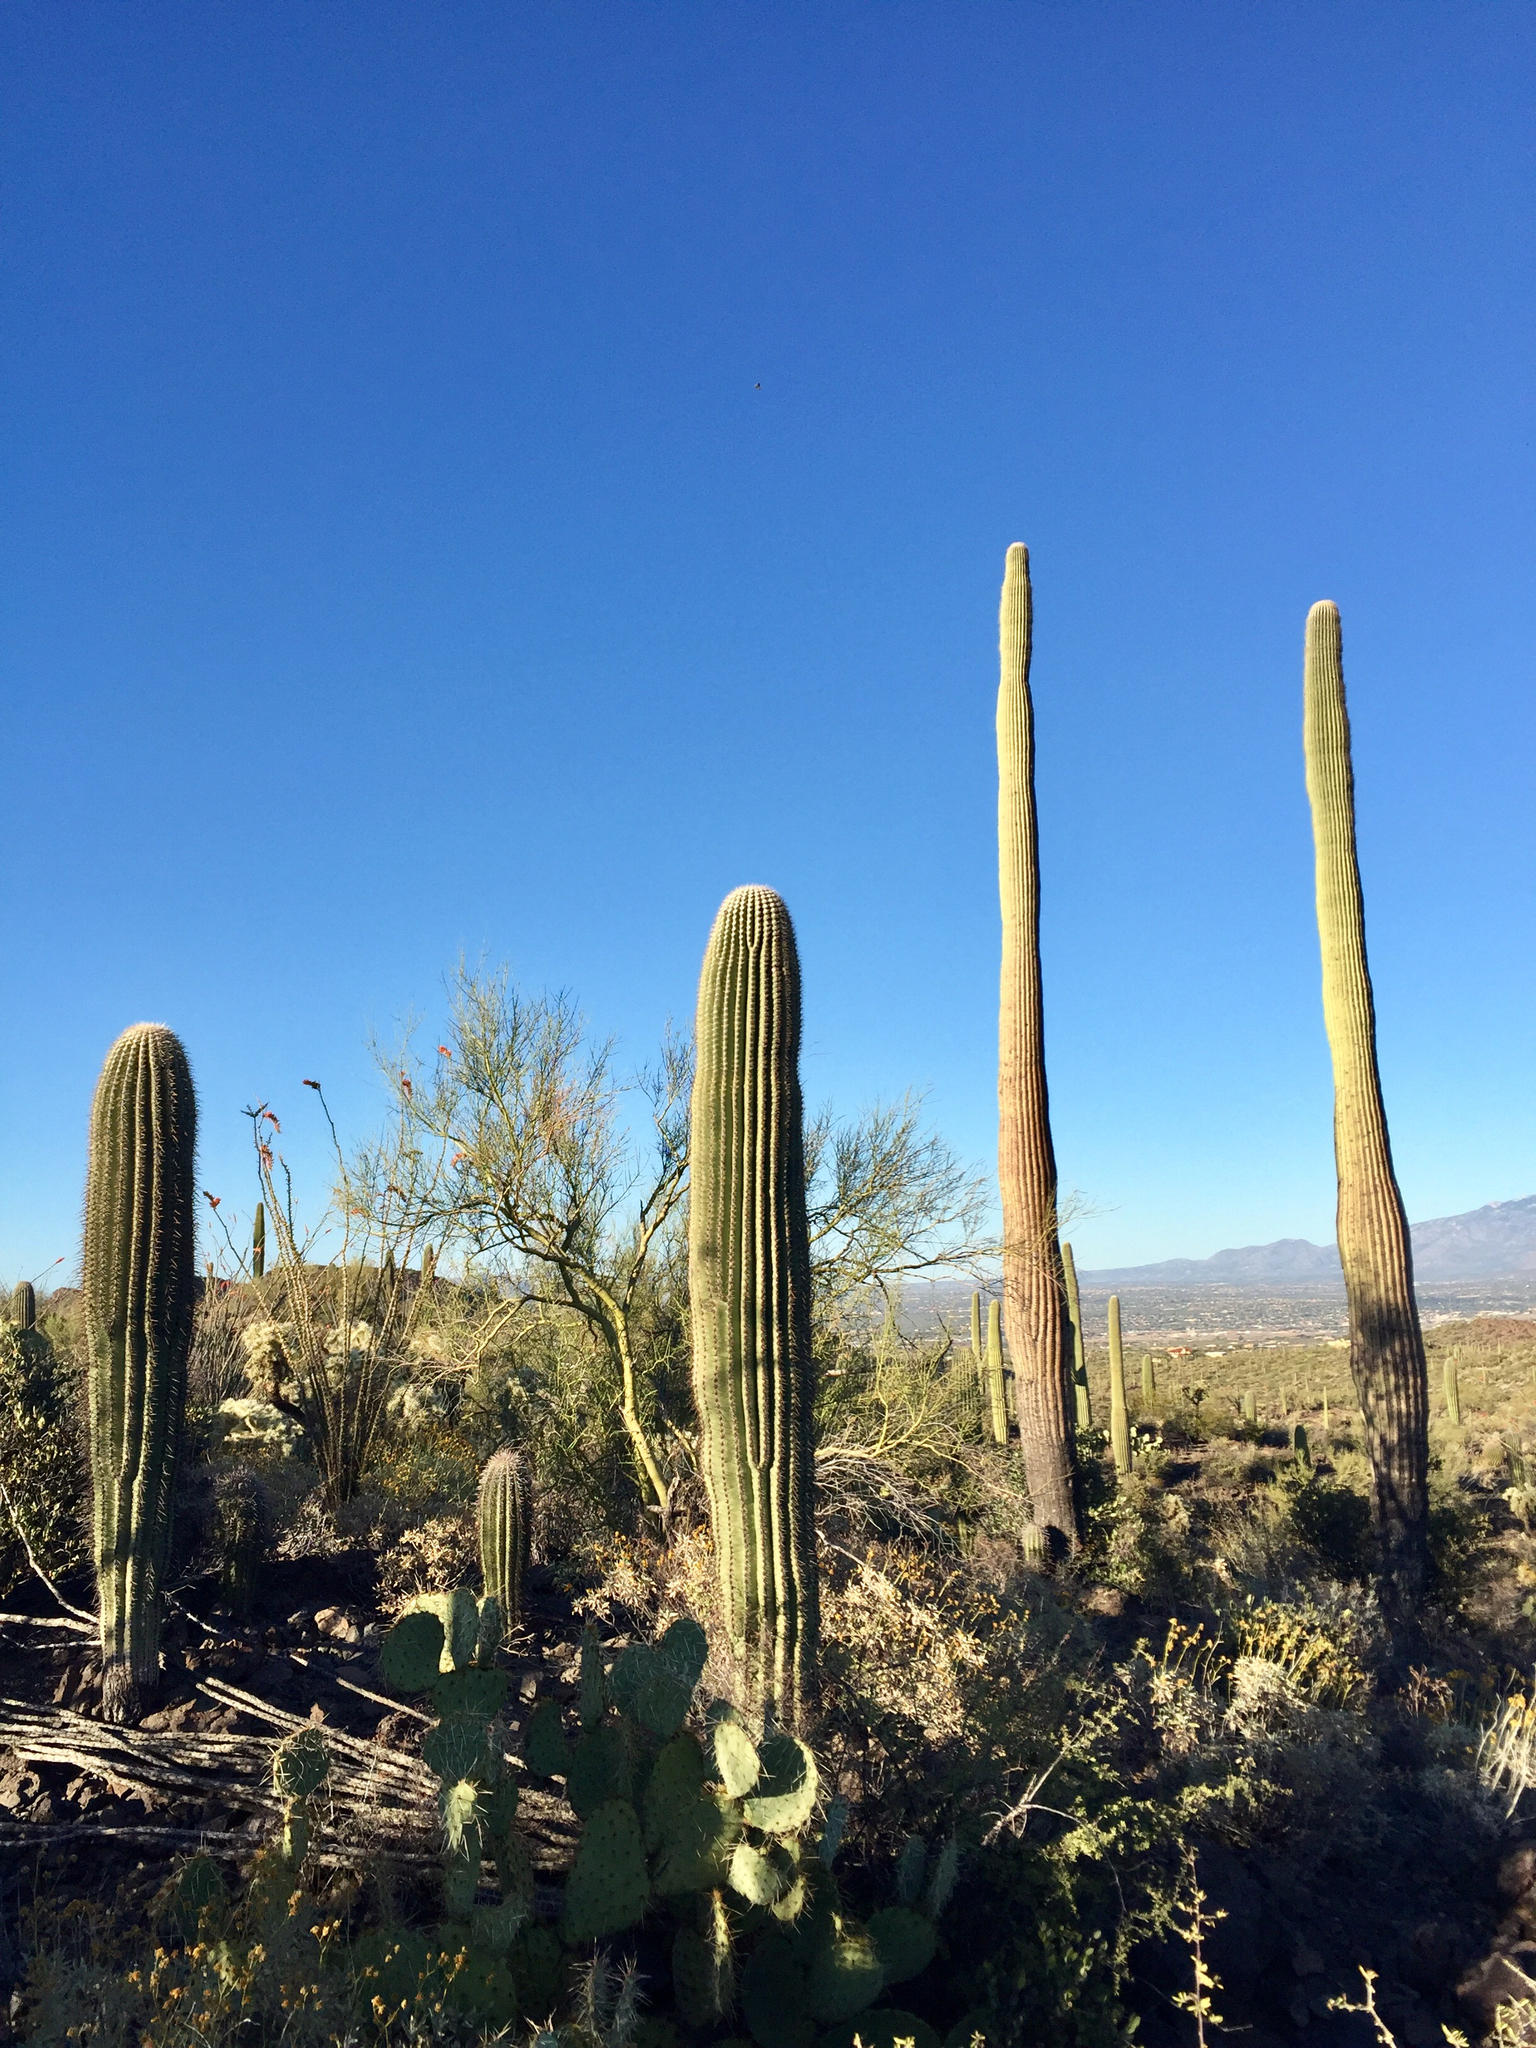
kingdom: Plantae
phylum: Tracheophyta
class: Magnoliopsida
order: Caryophyllales
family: Cactaceae
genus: Carnegiea
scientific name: Carnegiea gigantea
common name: Saguaro
